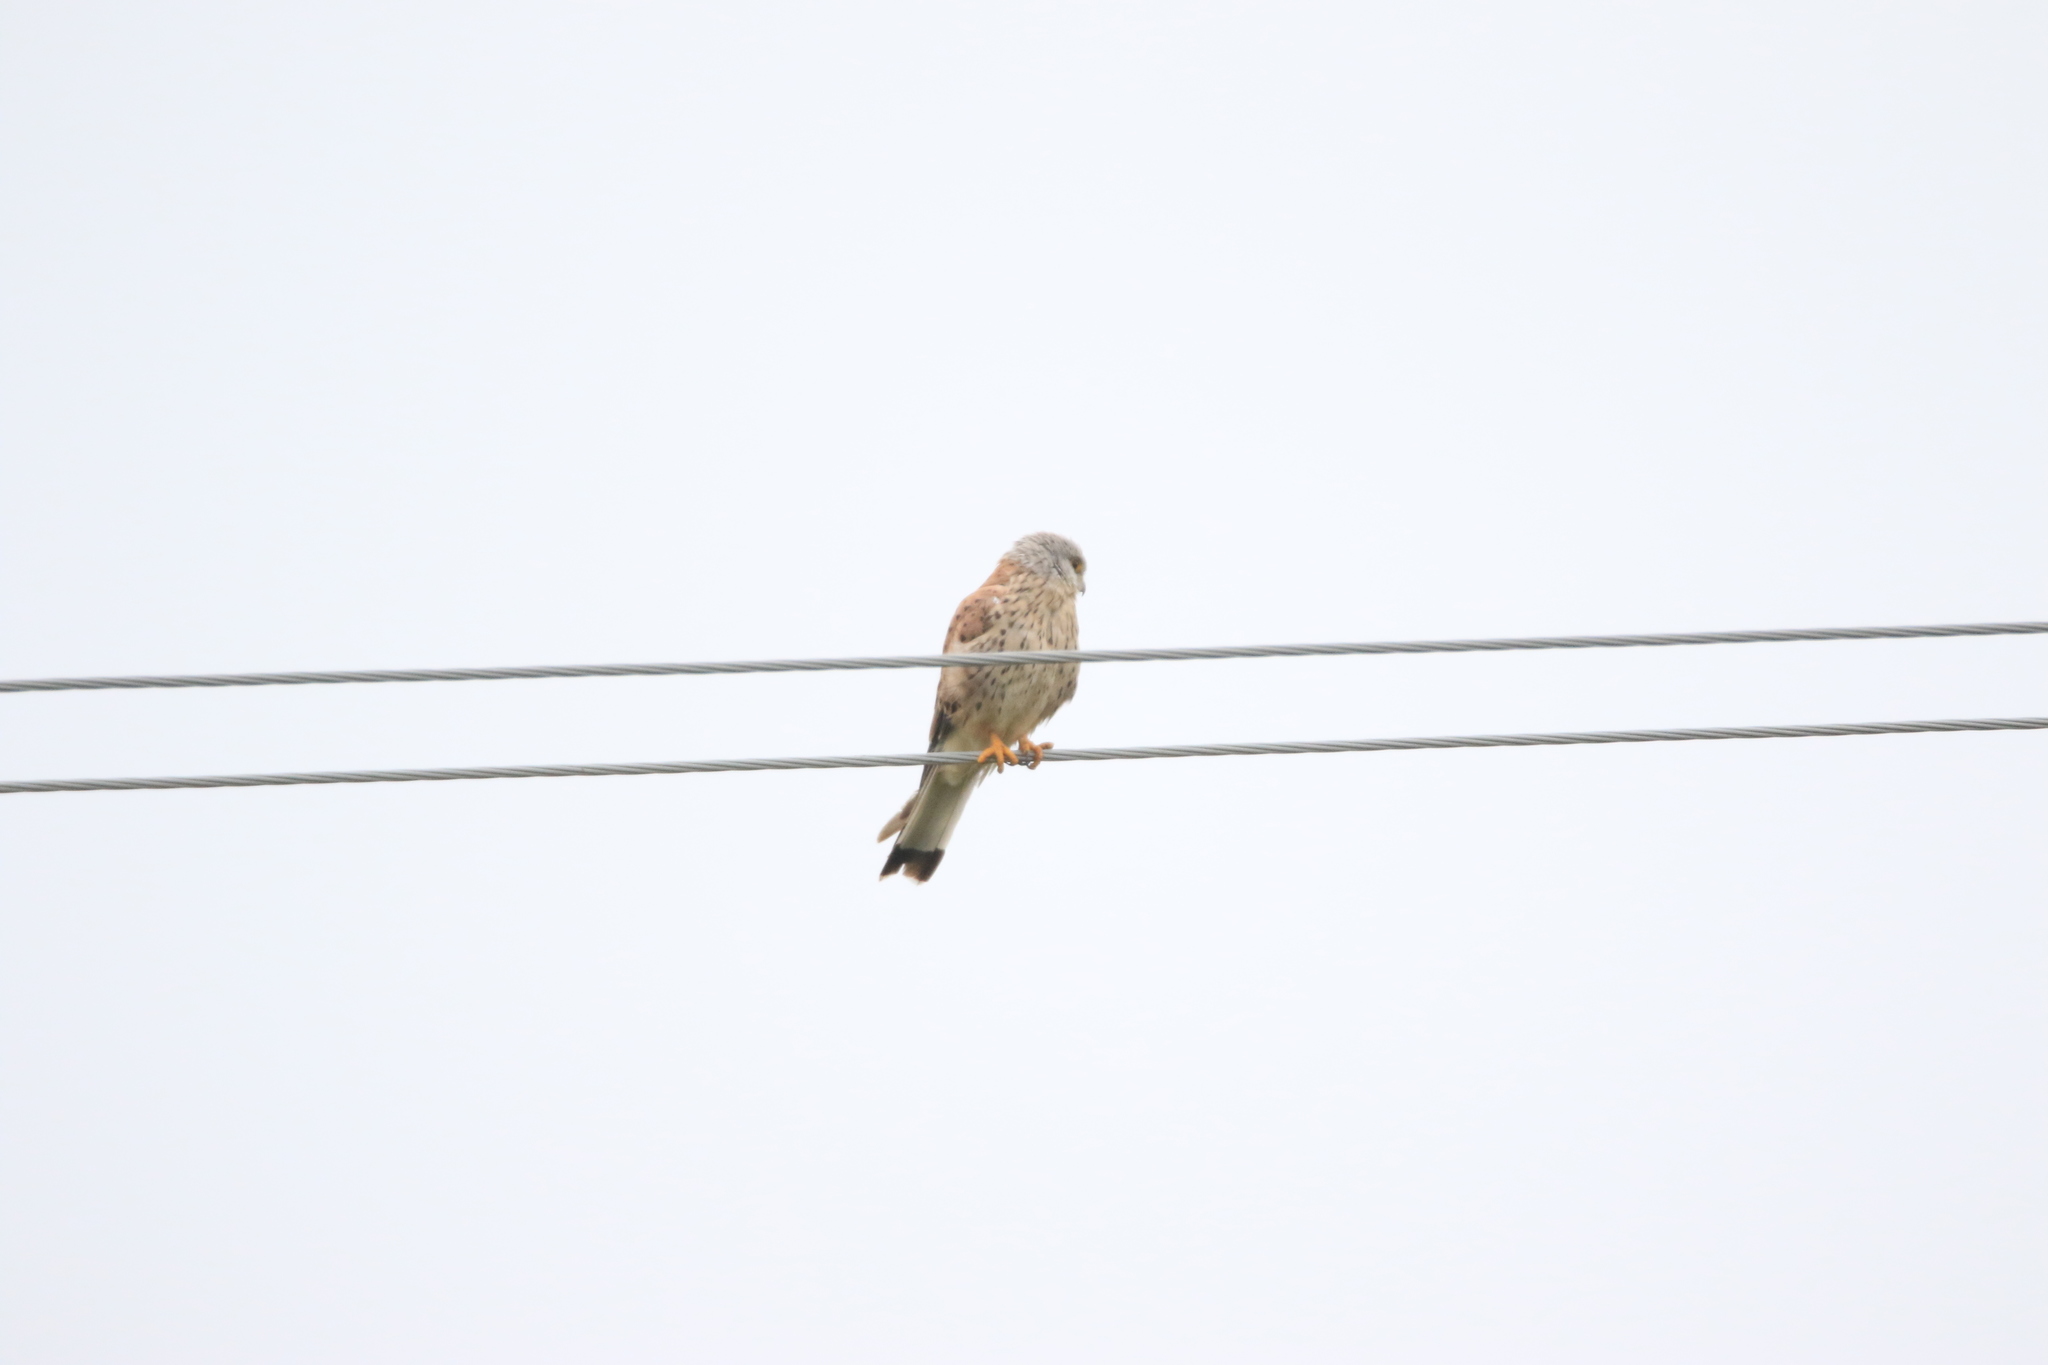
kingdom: Animalia
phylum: Chordata
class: Aves
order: Falconiformes
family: Falconidae
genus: Falco
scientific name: Falco tinnunculus
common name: Common kestrel
